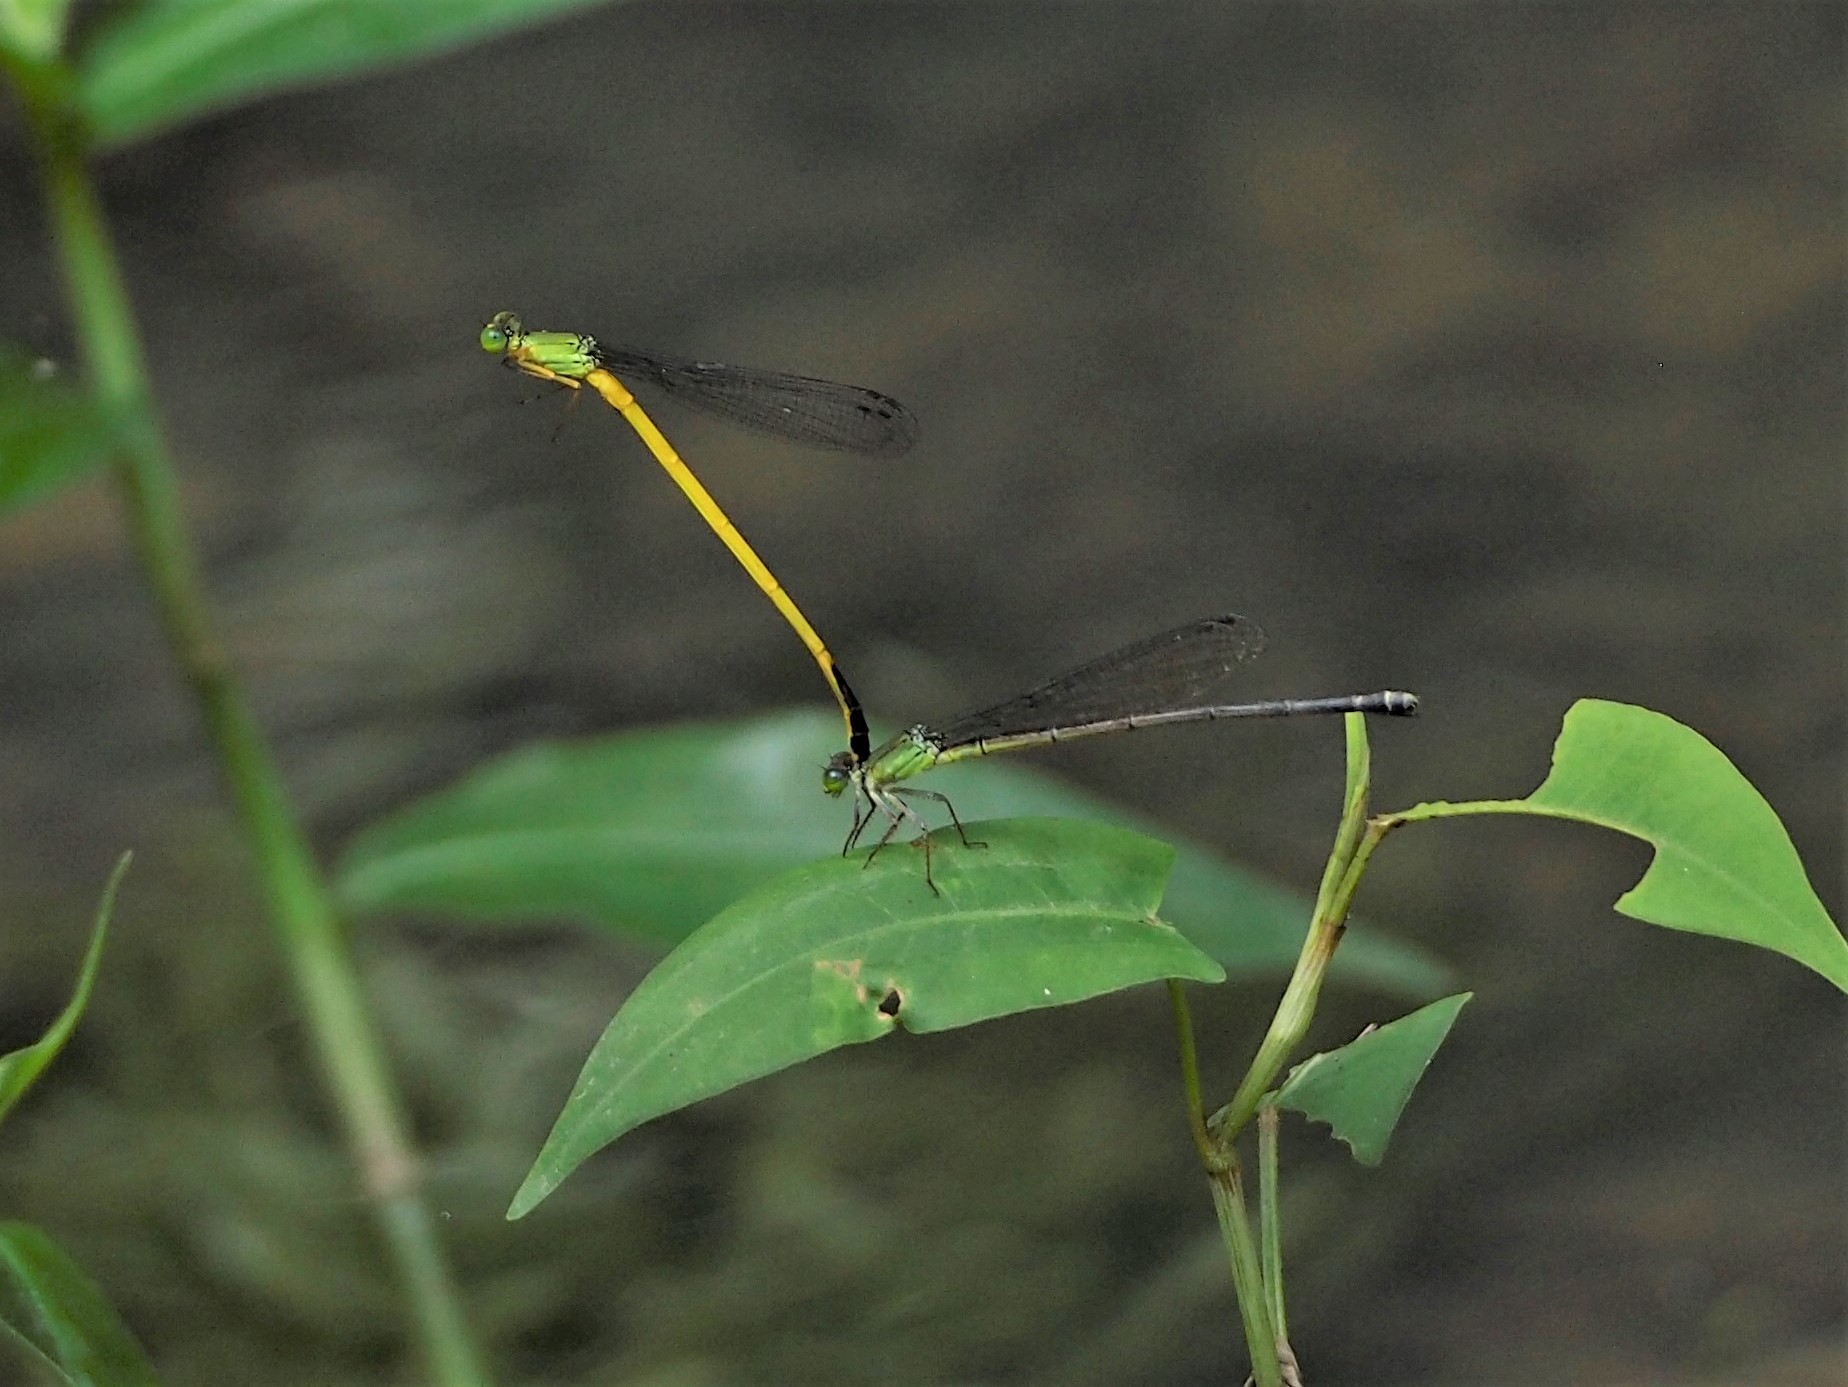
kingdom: Animalia
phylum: Arthropoda
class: Insecta
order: Odonata
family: Coenagrionidae
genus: Ceriagrion
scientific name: Ceriagrion fallax
